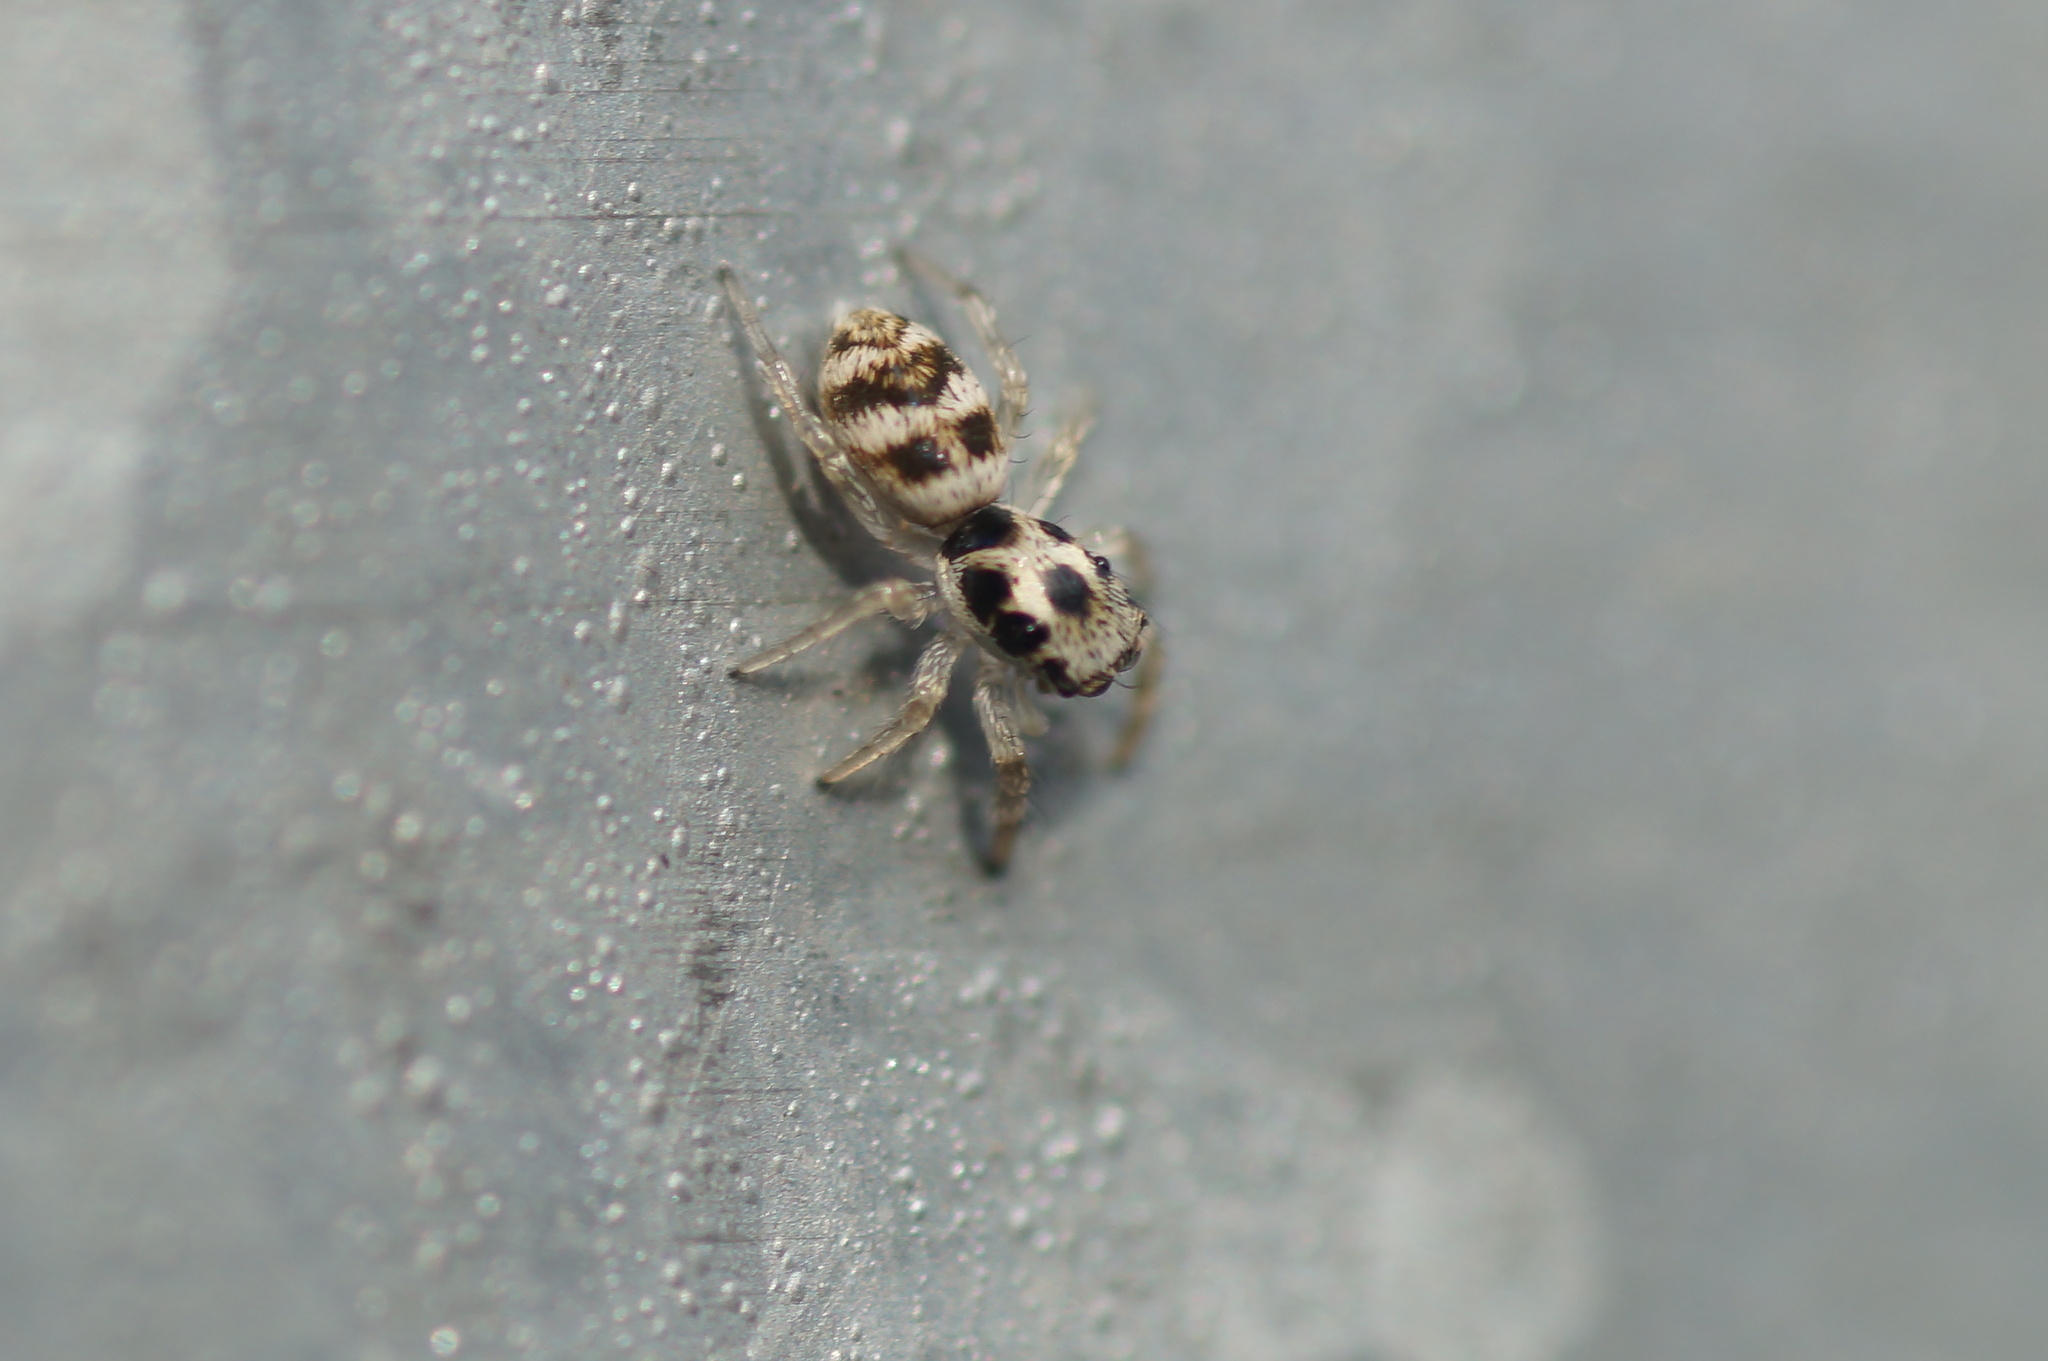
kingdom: Animalia
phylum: Arthropoda
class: Arachnida
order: Araneae
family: Salticidae
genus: Salticus
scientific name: Salticus scenicus
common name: Zebra jumper
